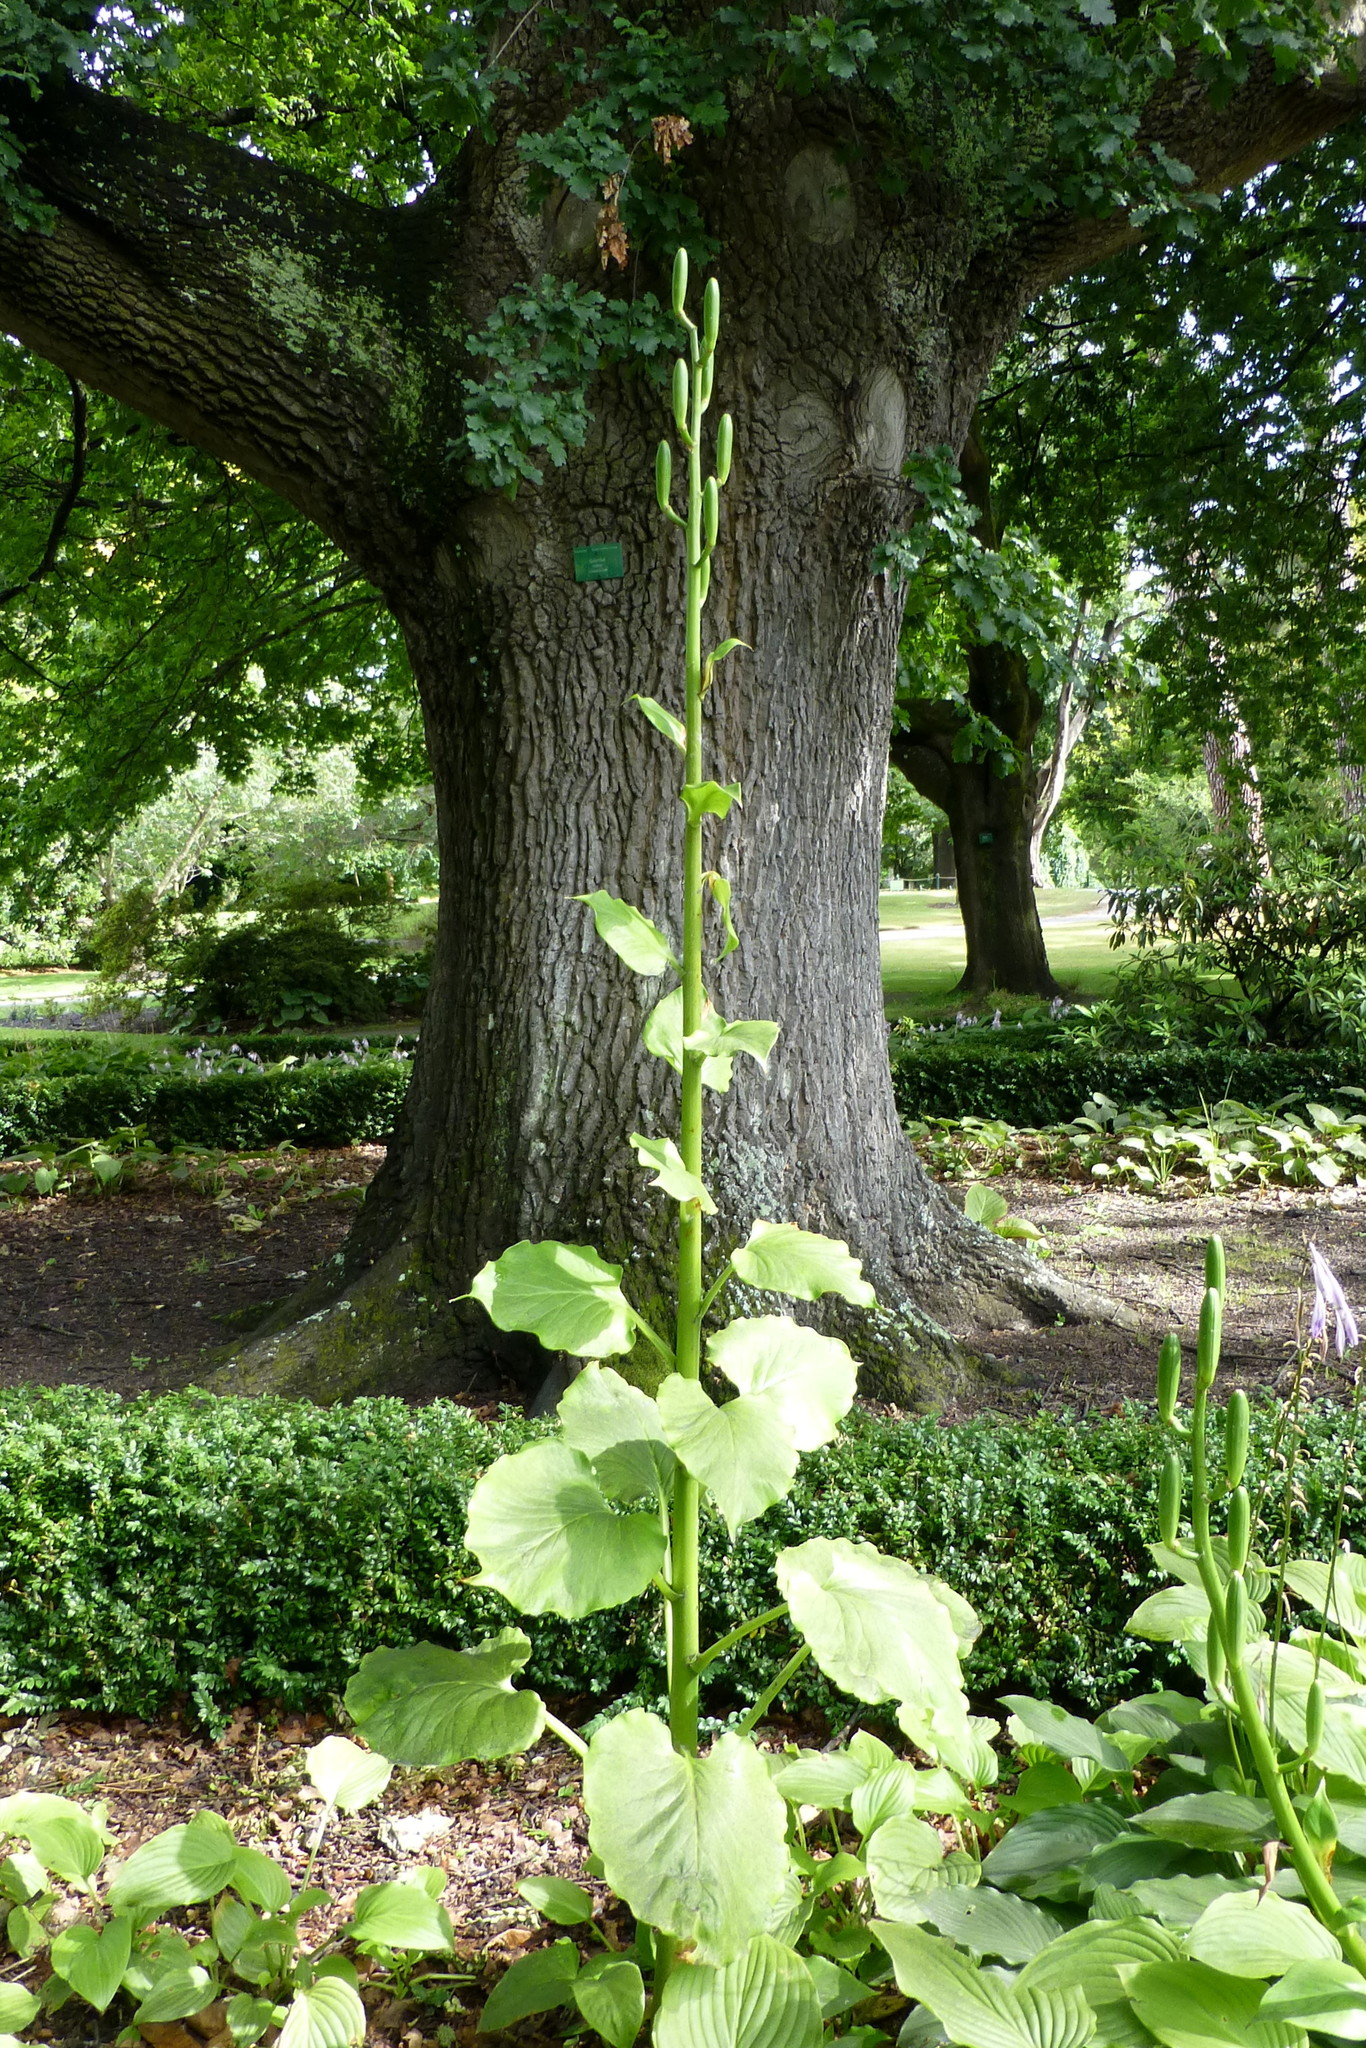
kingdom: Plantae
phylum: Tracheophyta
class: Liliopsida
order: Liliales
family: Liliaceae
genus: Cardiocrinum
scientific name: Cardiocrinum giganteum
